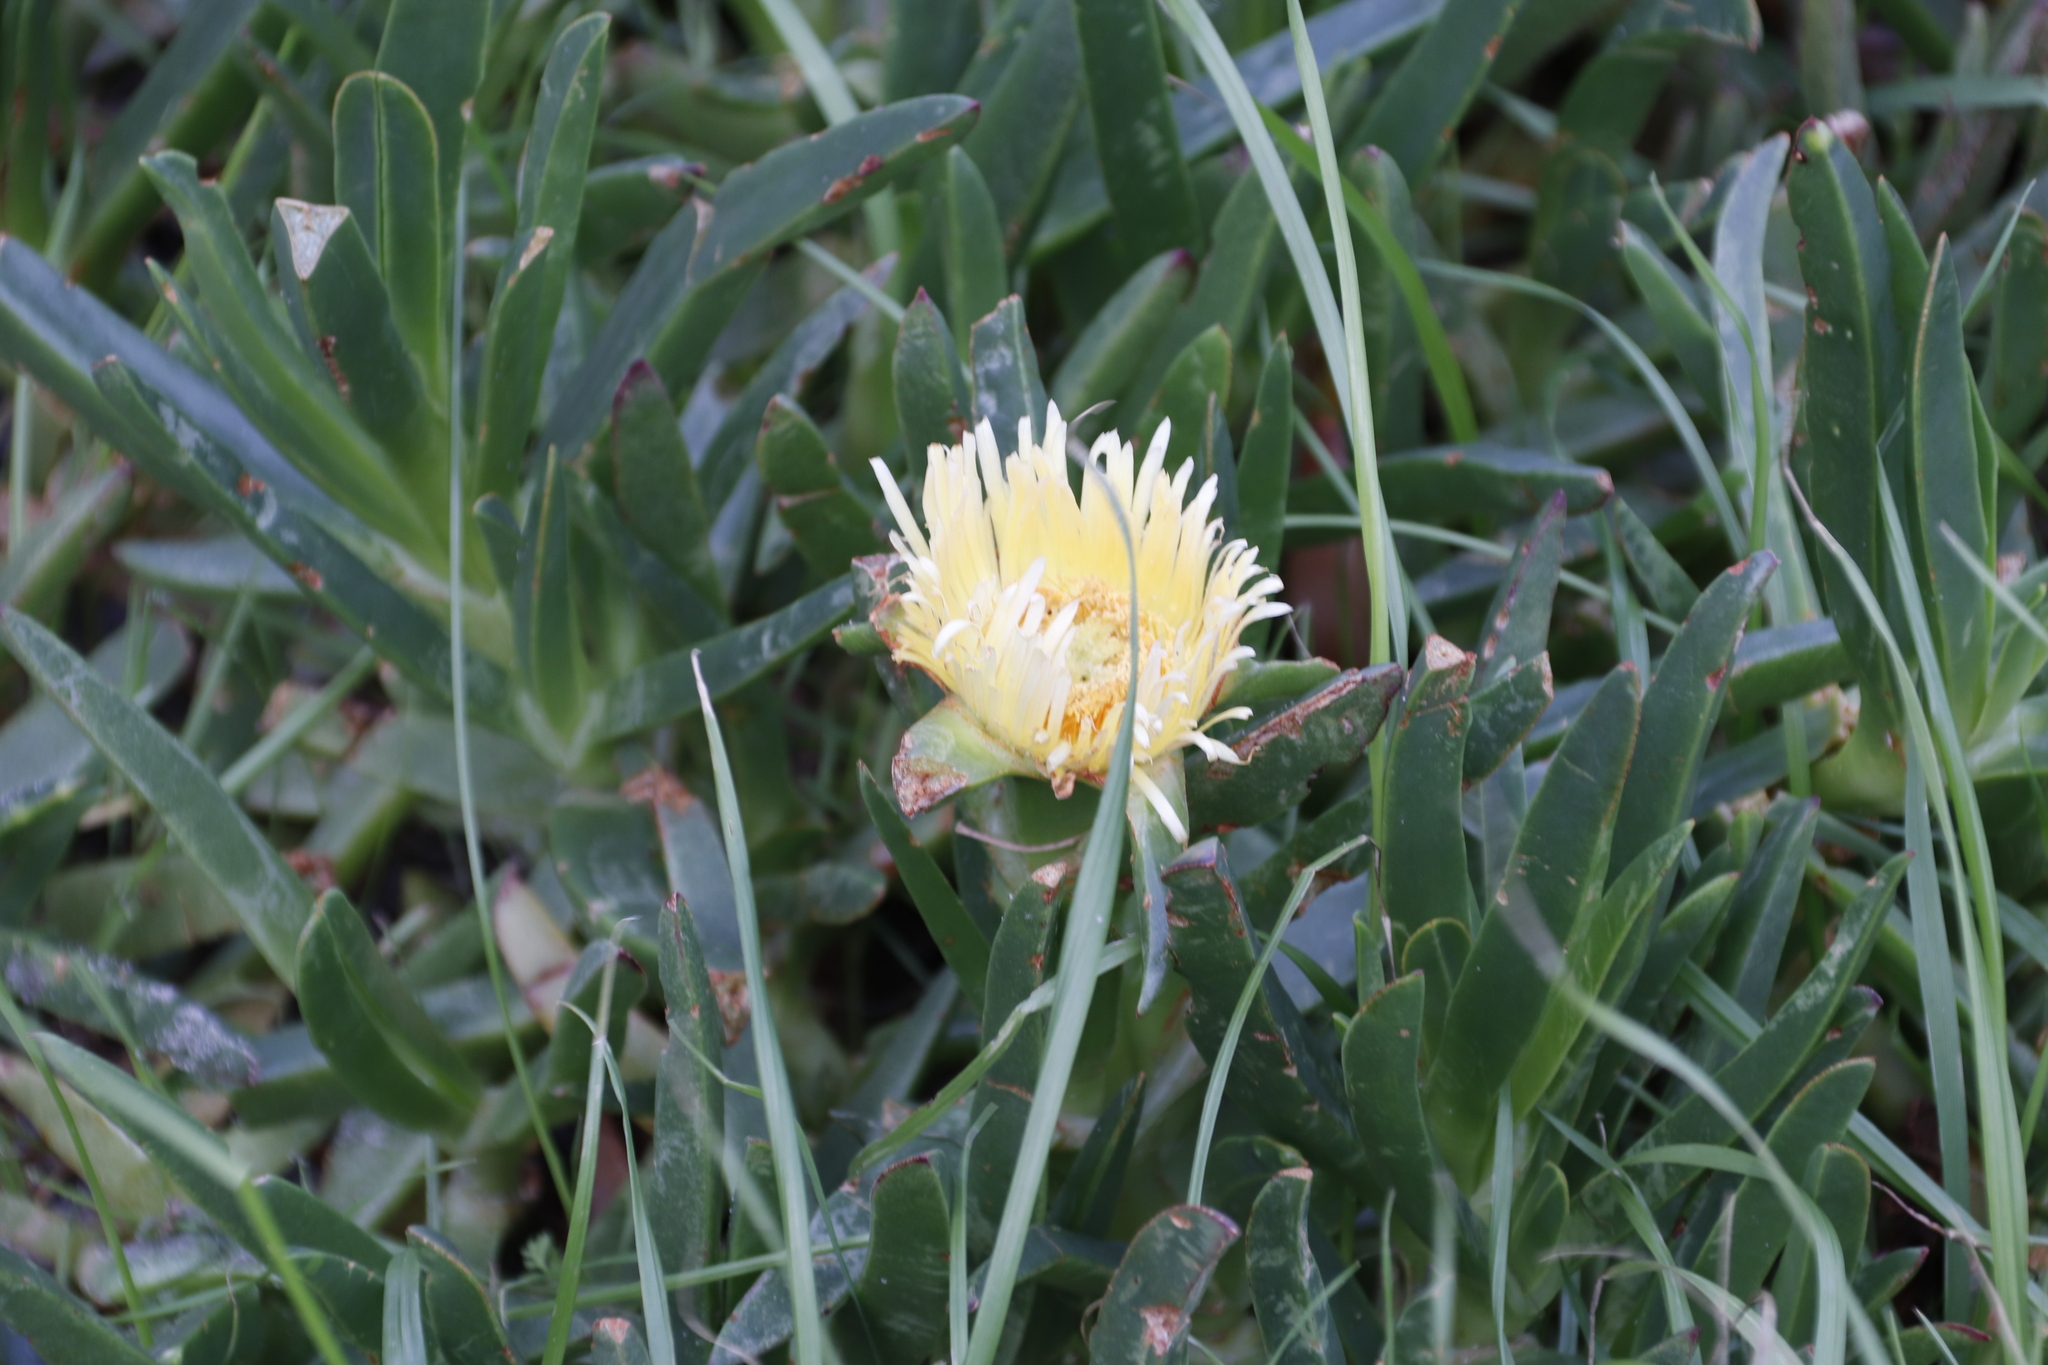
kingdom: Plantae
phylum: Tracheophyta
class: Magnoliopsida
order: Caryophyllales
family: Aizoaceae
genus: Carpobrotus
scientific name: Carpobrotus edulis
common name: Hottentot-fig
